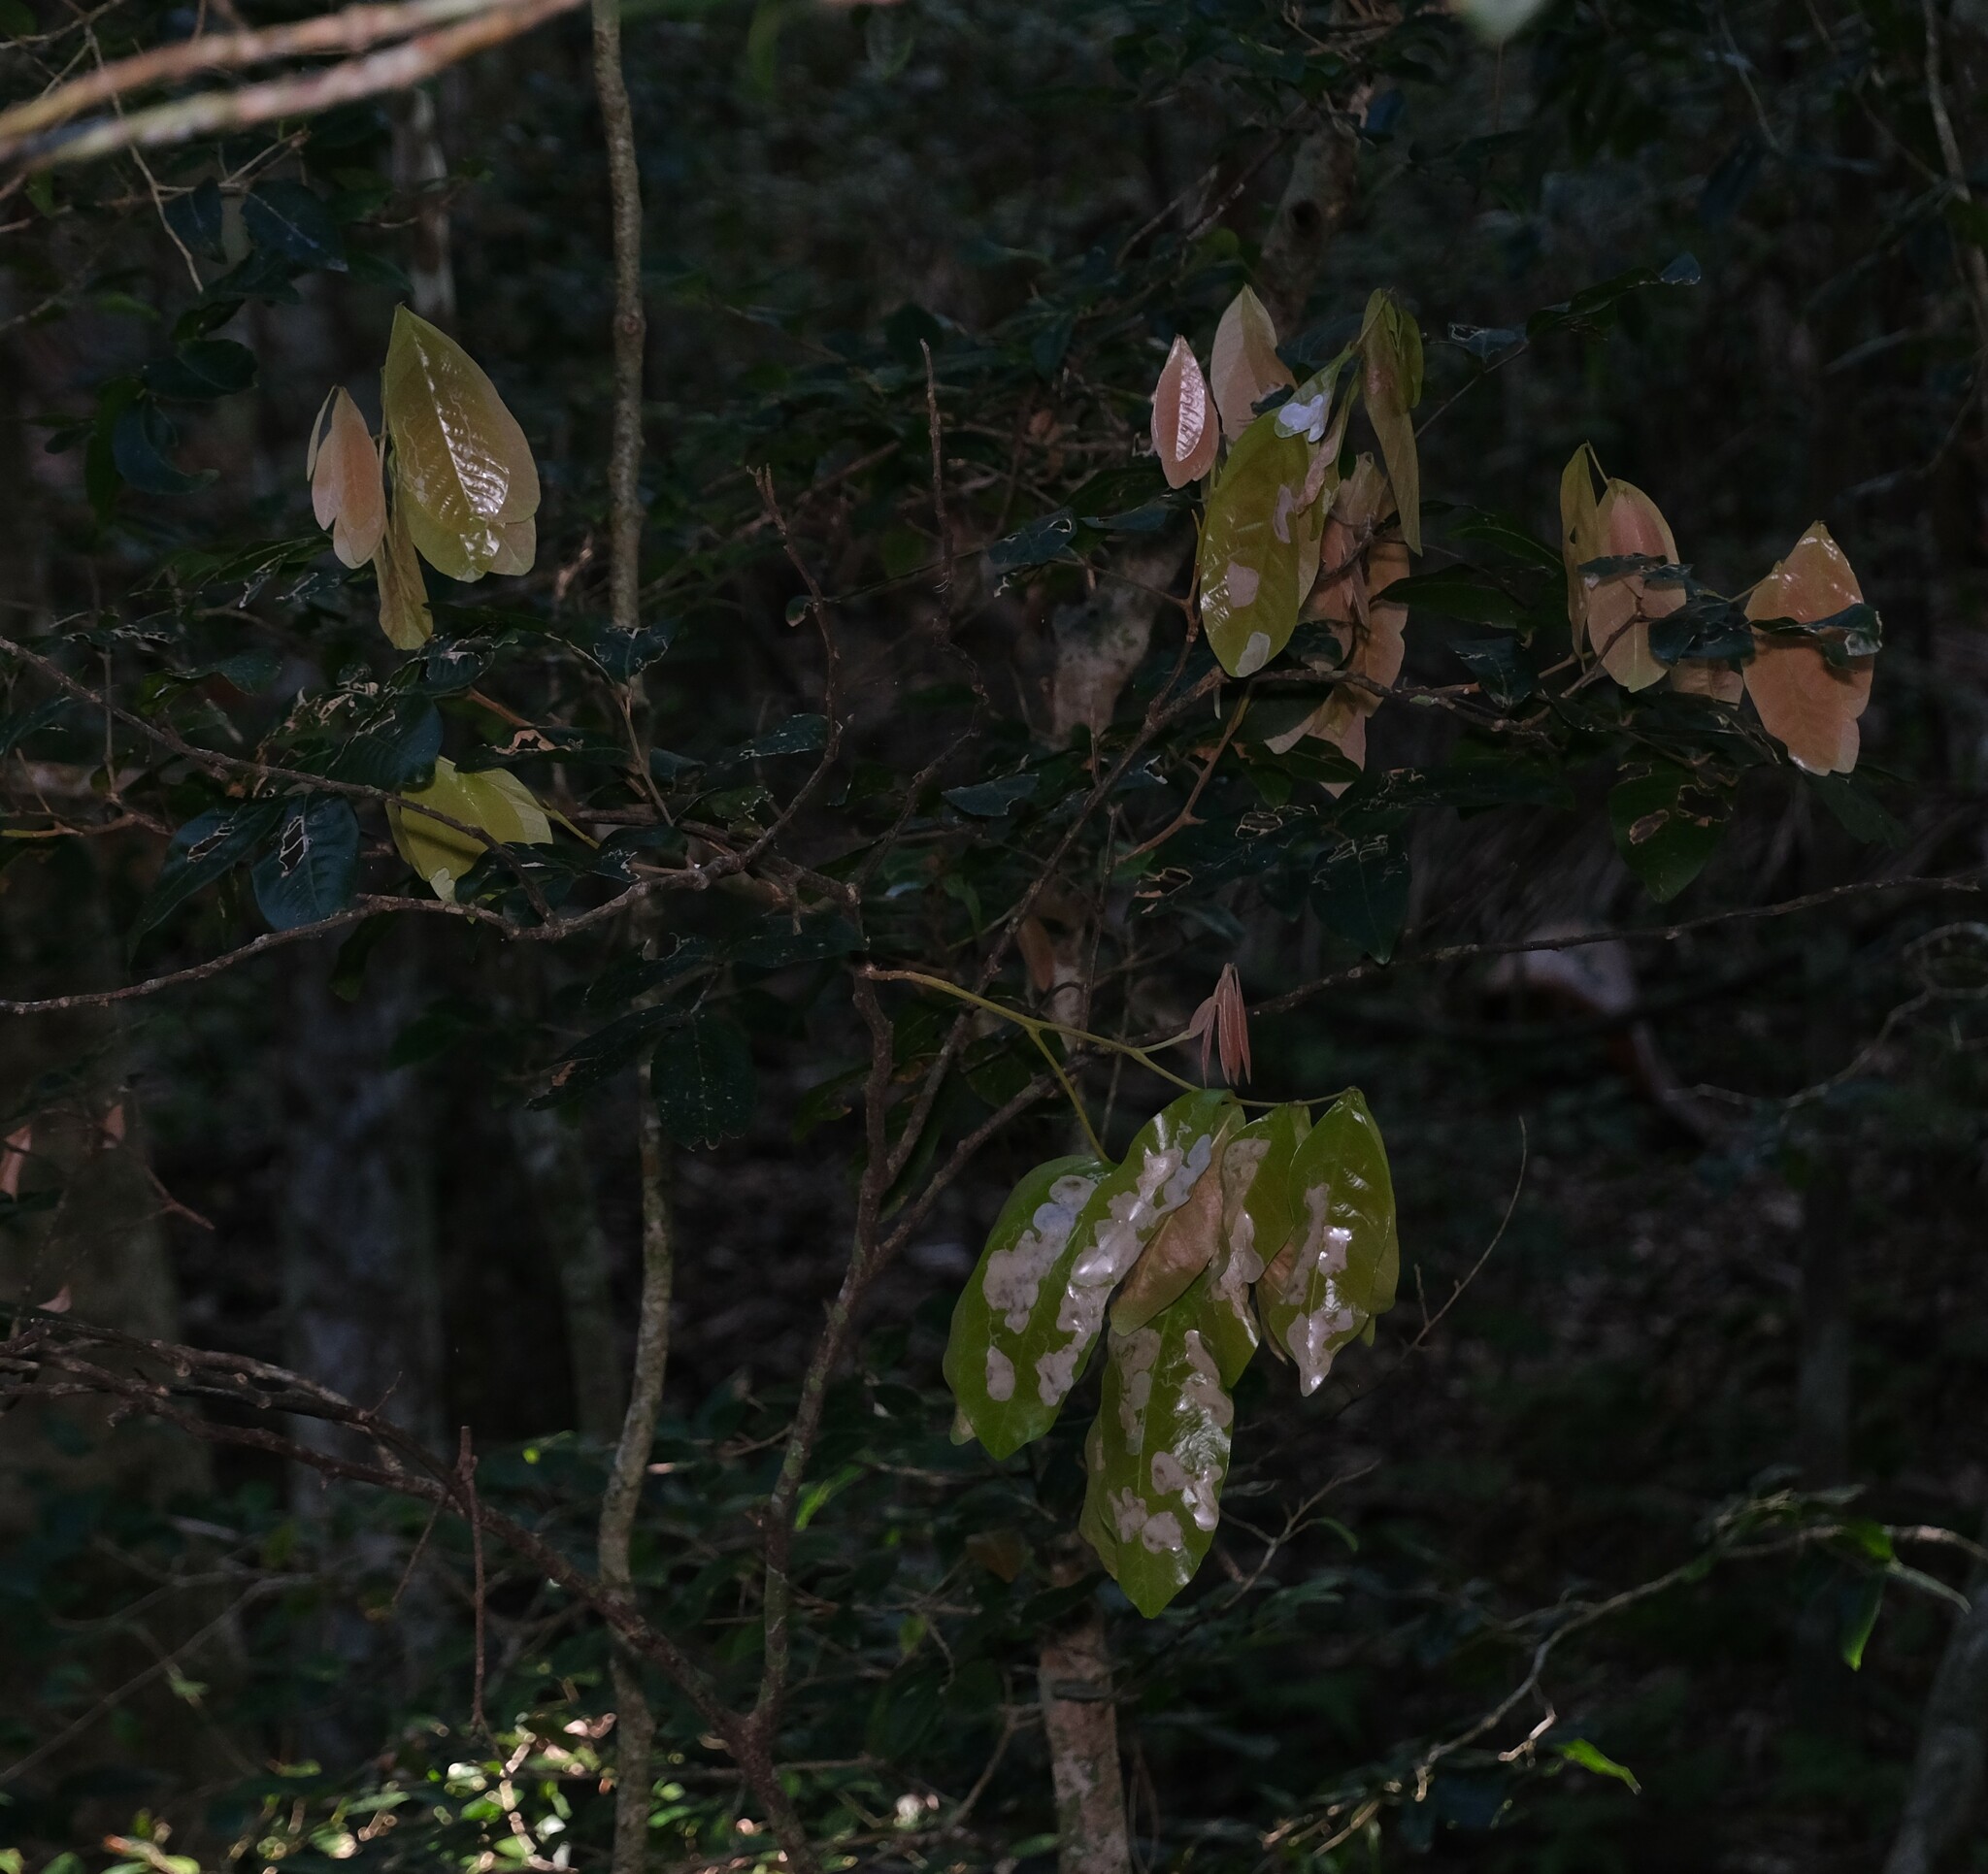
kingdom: Plantae
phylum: Tracheophyta
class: Magnoliopsida
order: Sapindales
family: Sapindaceae
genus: Arytera
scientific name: Arytera divaricata
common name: Coogera
